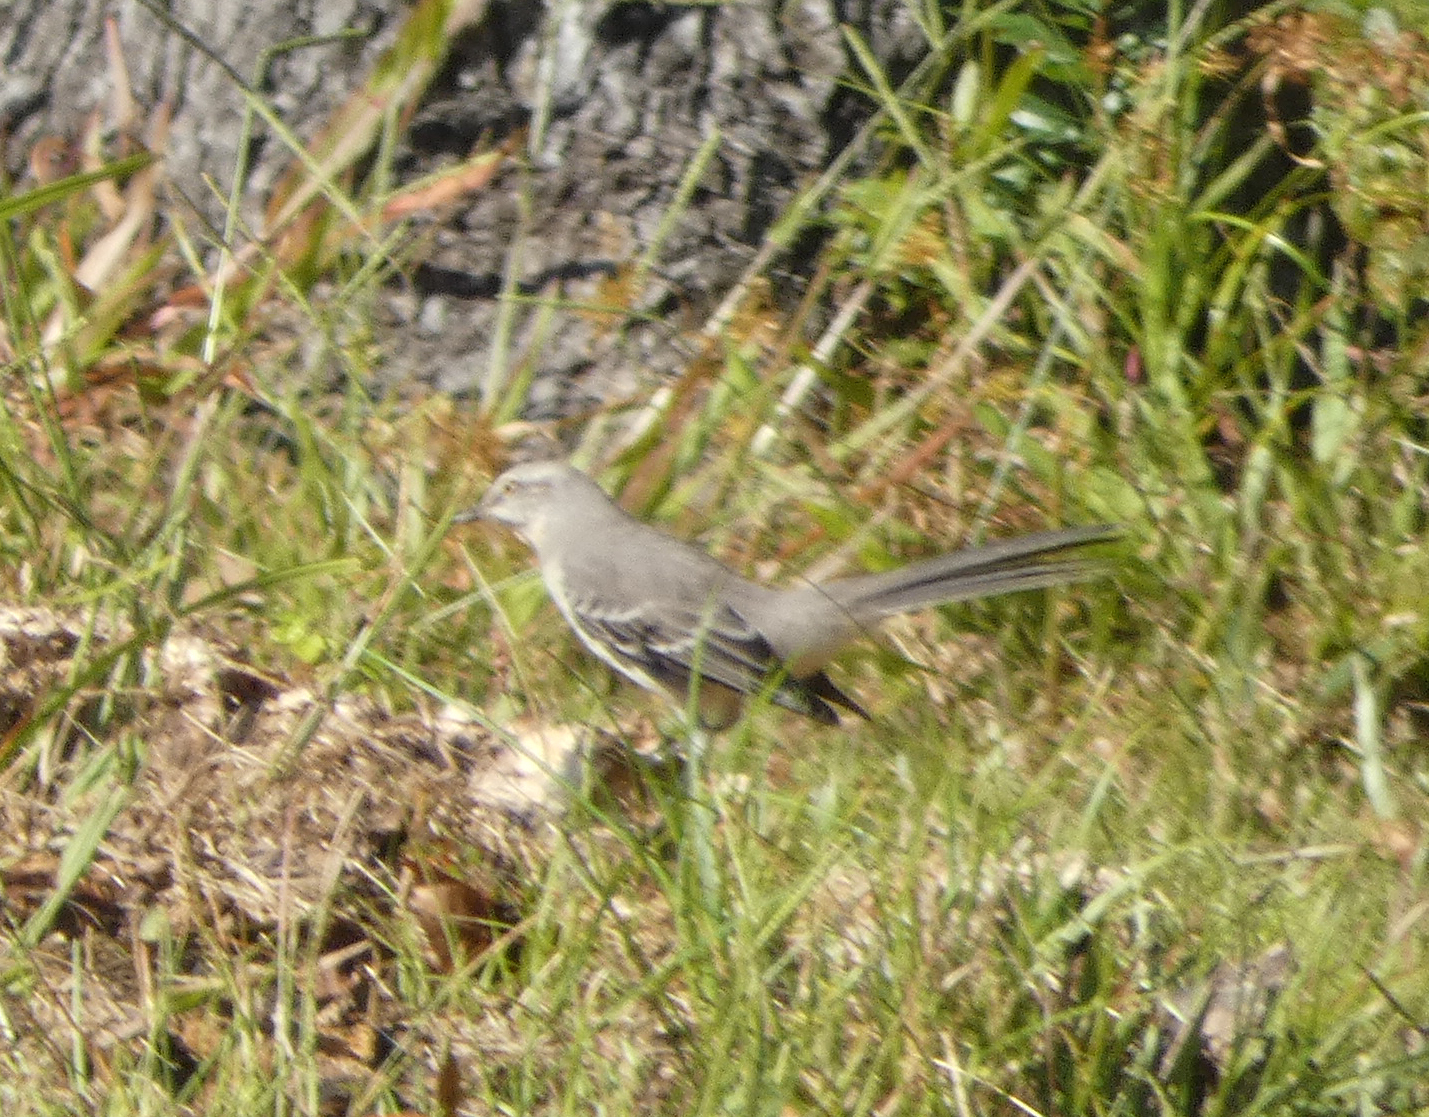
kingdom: Animalia
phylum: Chordata
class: Aves
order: Passeriformes
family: Mimidae
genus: Mimus
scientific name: Mimus polyglottos
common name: Northern mockingbird
